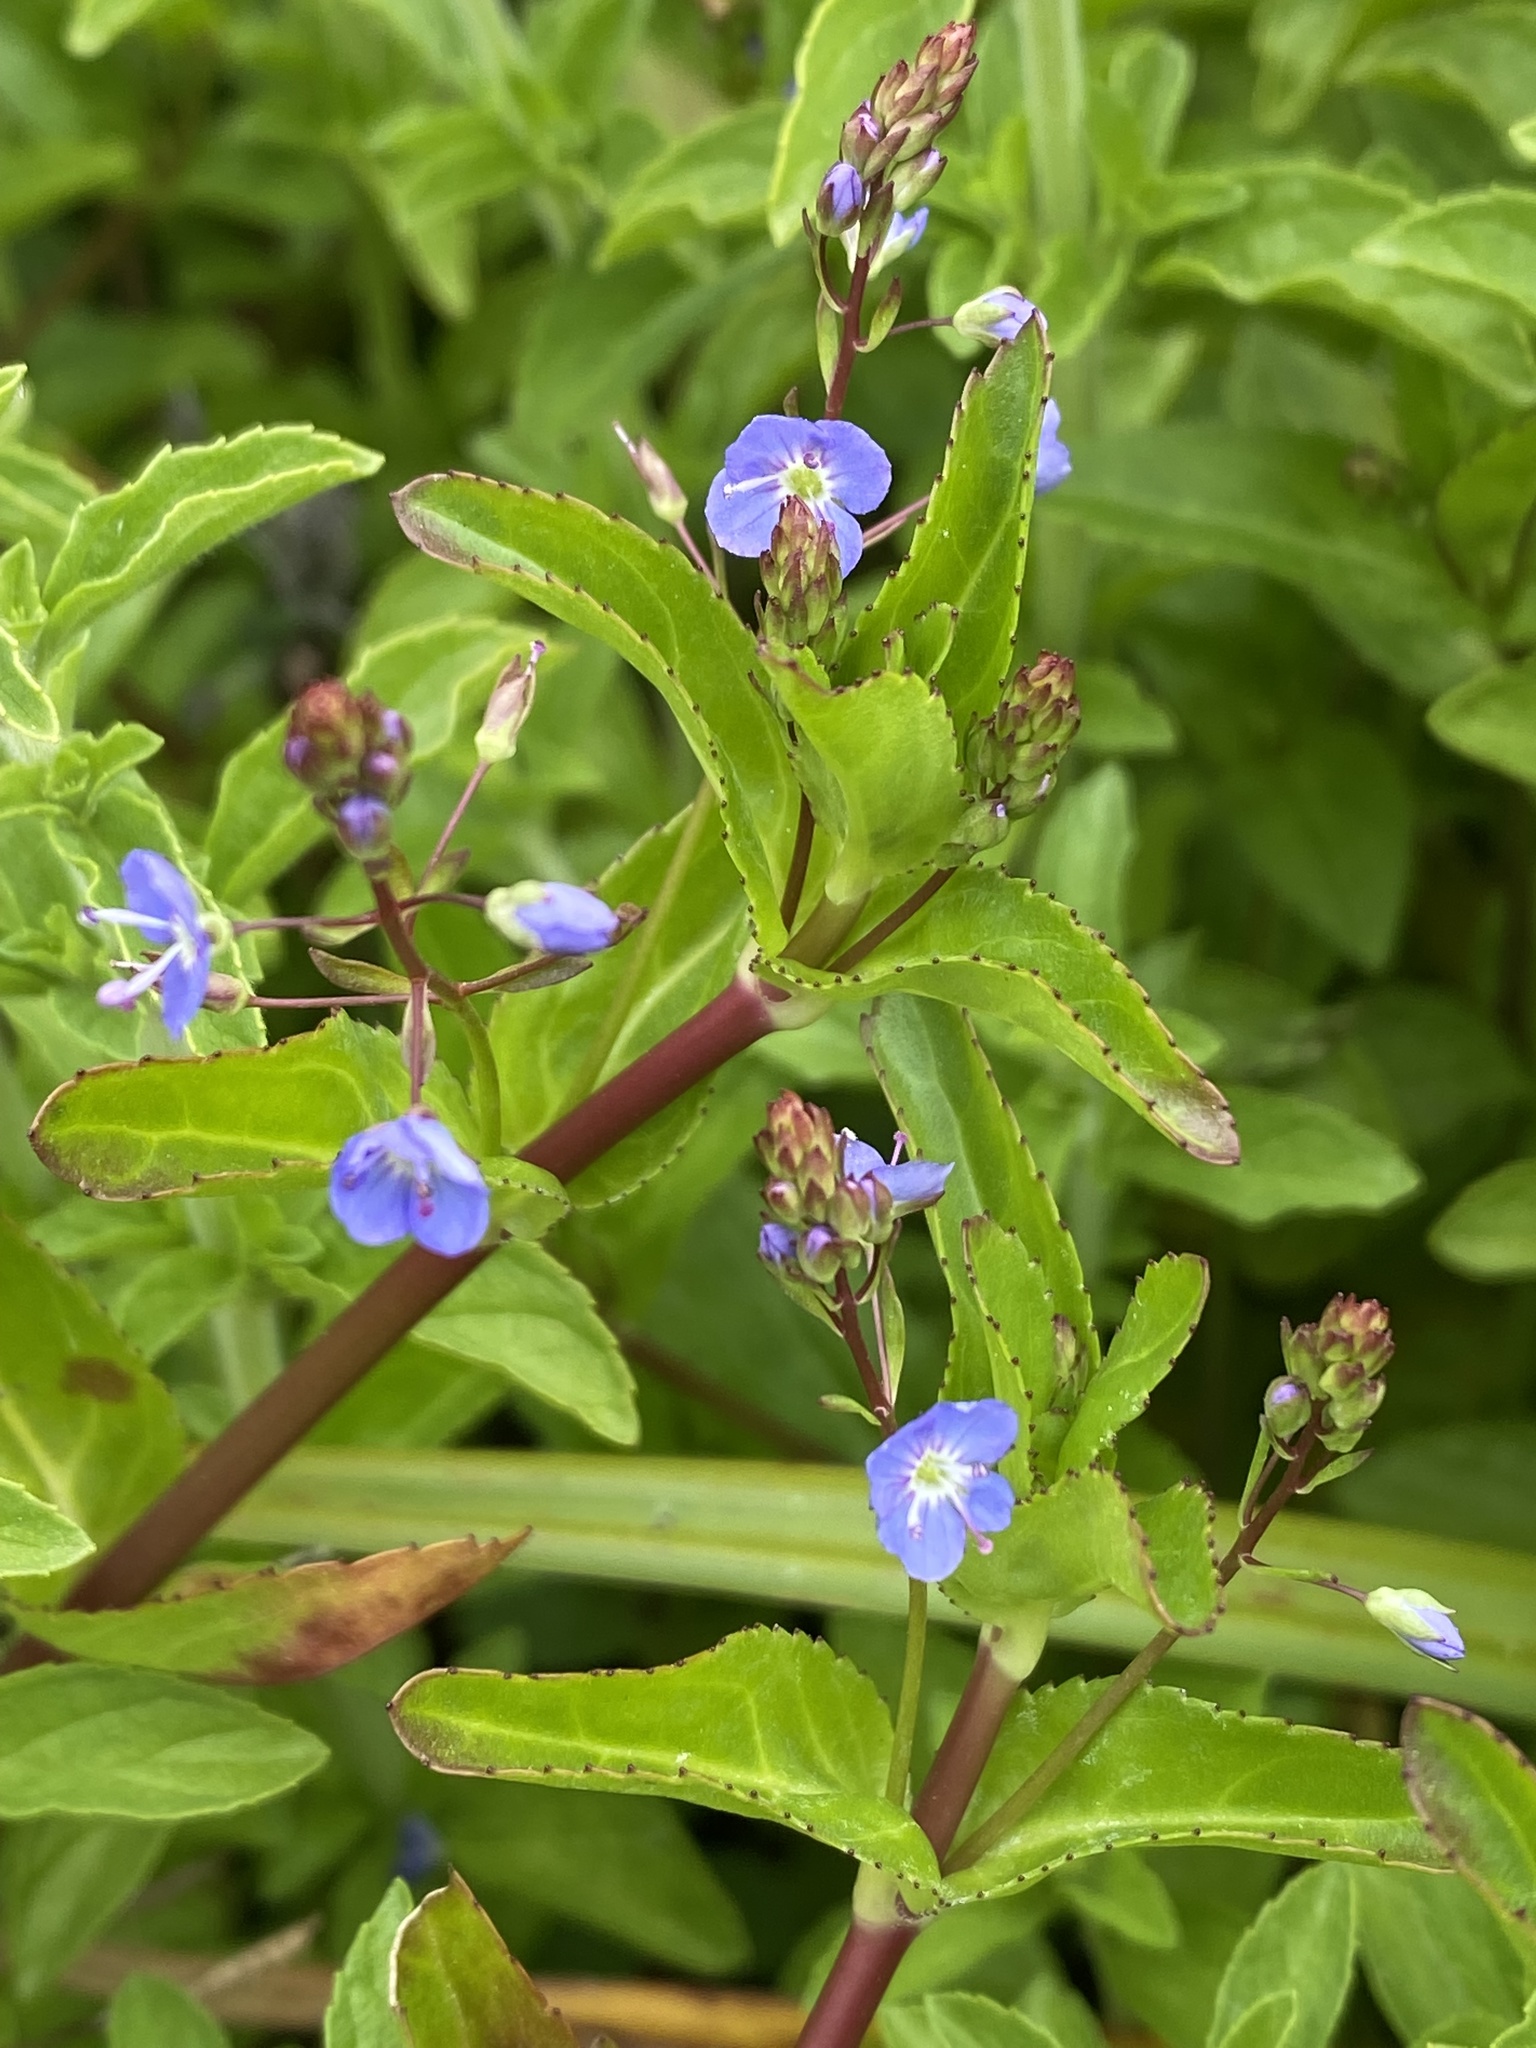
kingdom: Plantae
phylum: Tracheophyta
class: Magnoliopsida
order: Lamiales
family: Plantaginaceae
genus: Veronica
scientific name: Veronica americana
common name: American brooklime
